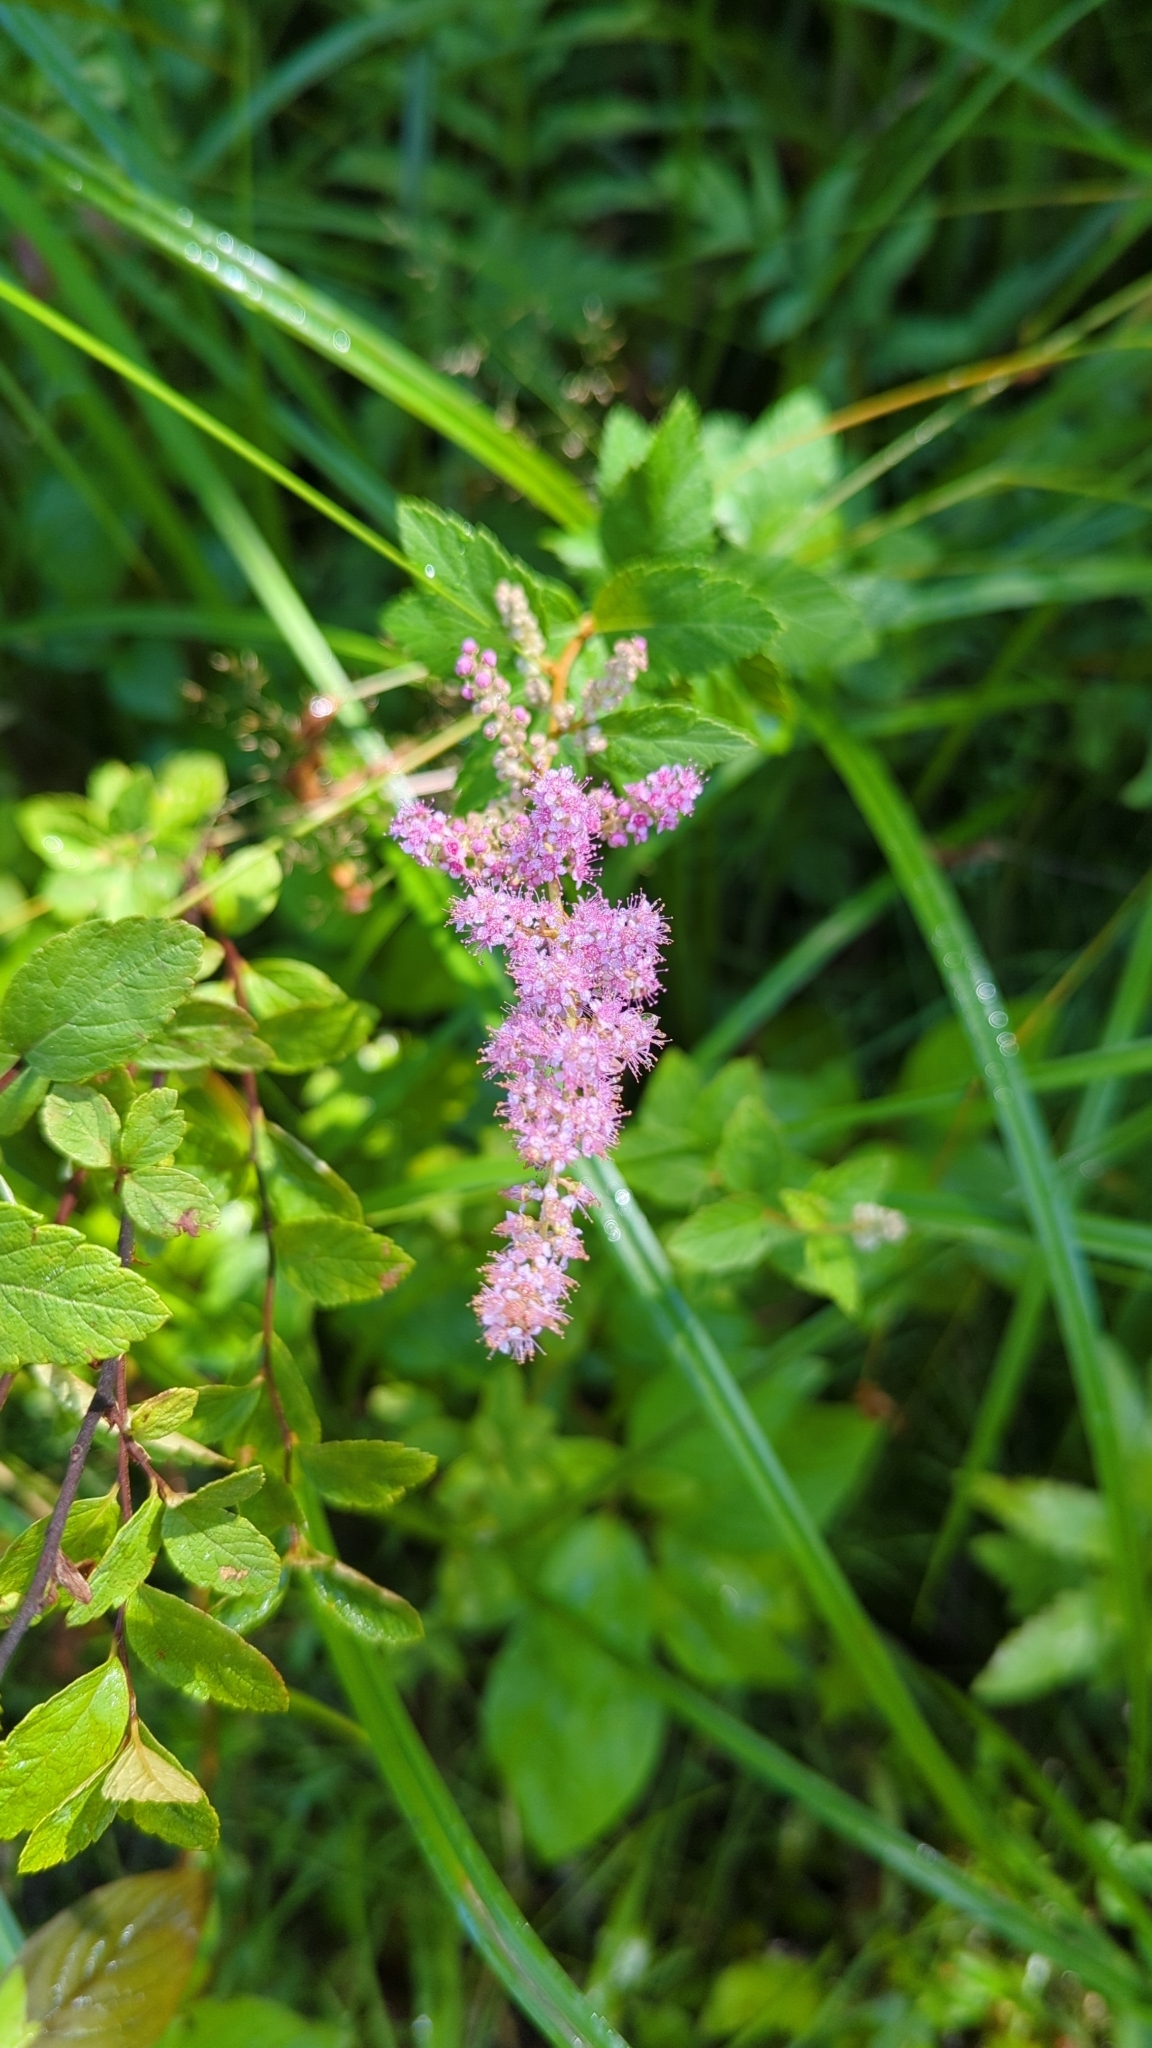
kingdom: Plantae
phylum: Tracheophyta
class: Magnoliopsida
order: Rosales
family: Rosaceae
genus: Spiraea
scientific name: Spiraea tomentosa
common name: Hardhack
